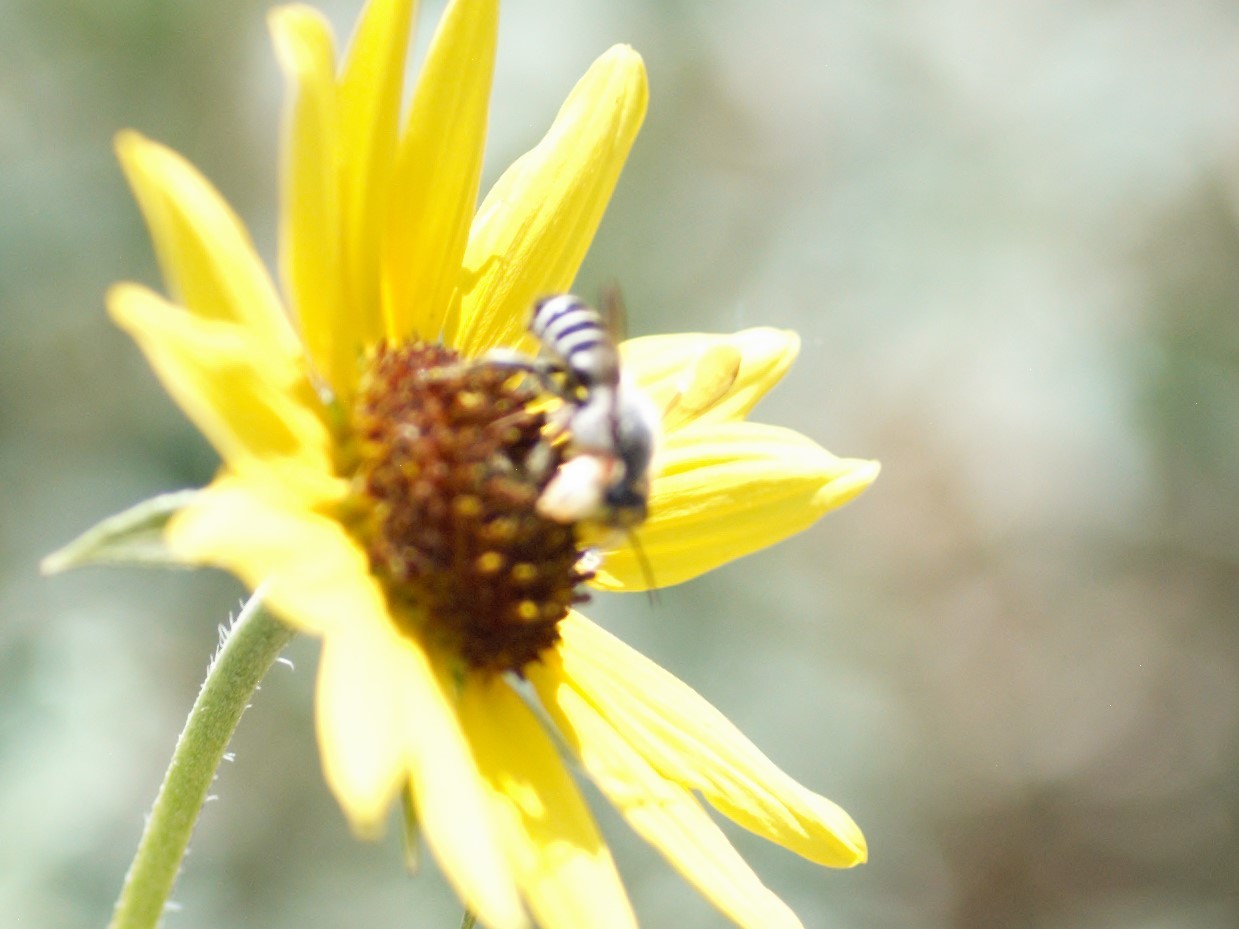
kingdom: Animalia
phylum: Arthropoda
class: Insecta
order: Hymenoptera
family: Megachilidae
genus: Megachile
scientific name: Megachile policaris
